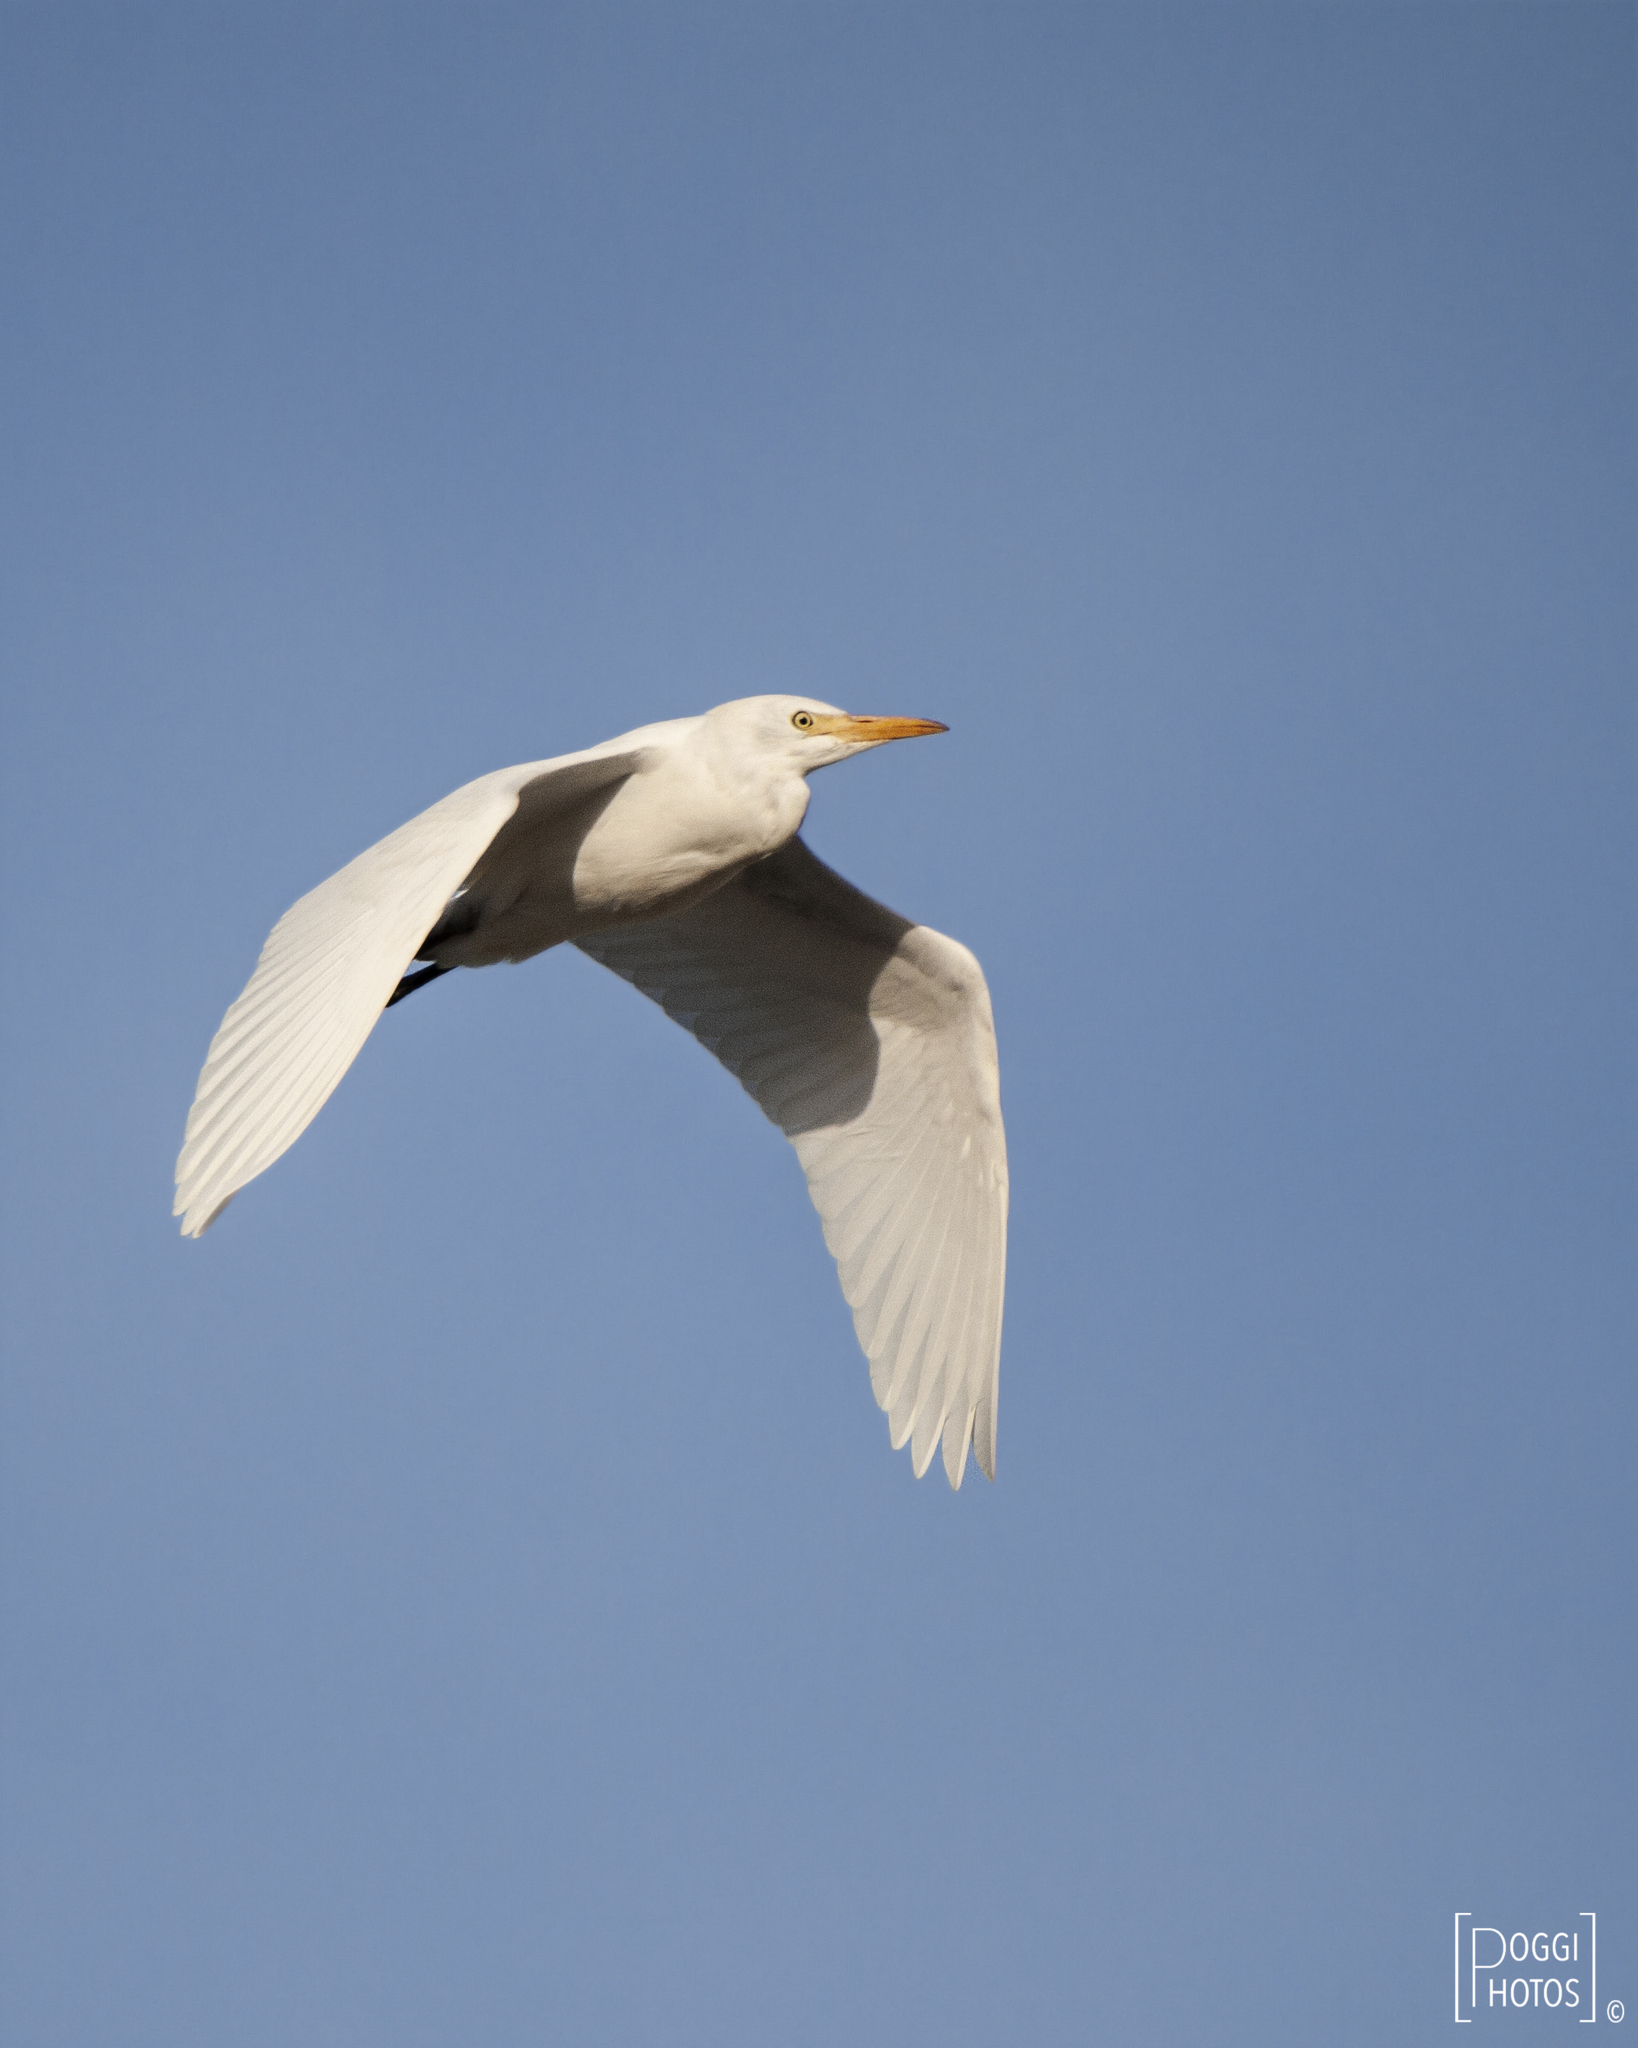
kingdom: Animalia
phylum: Chordata
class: Aves
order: Pelecaniformes
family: Ardeidae
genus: Bubulcus
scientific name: Bubulcus ibis
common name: Cattle egret
